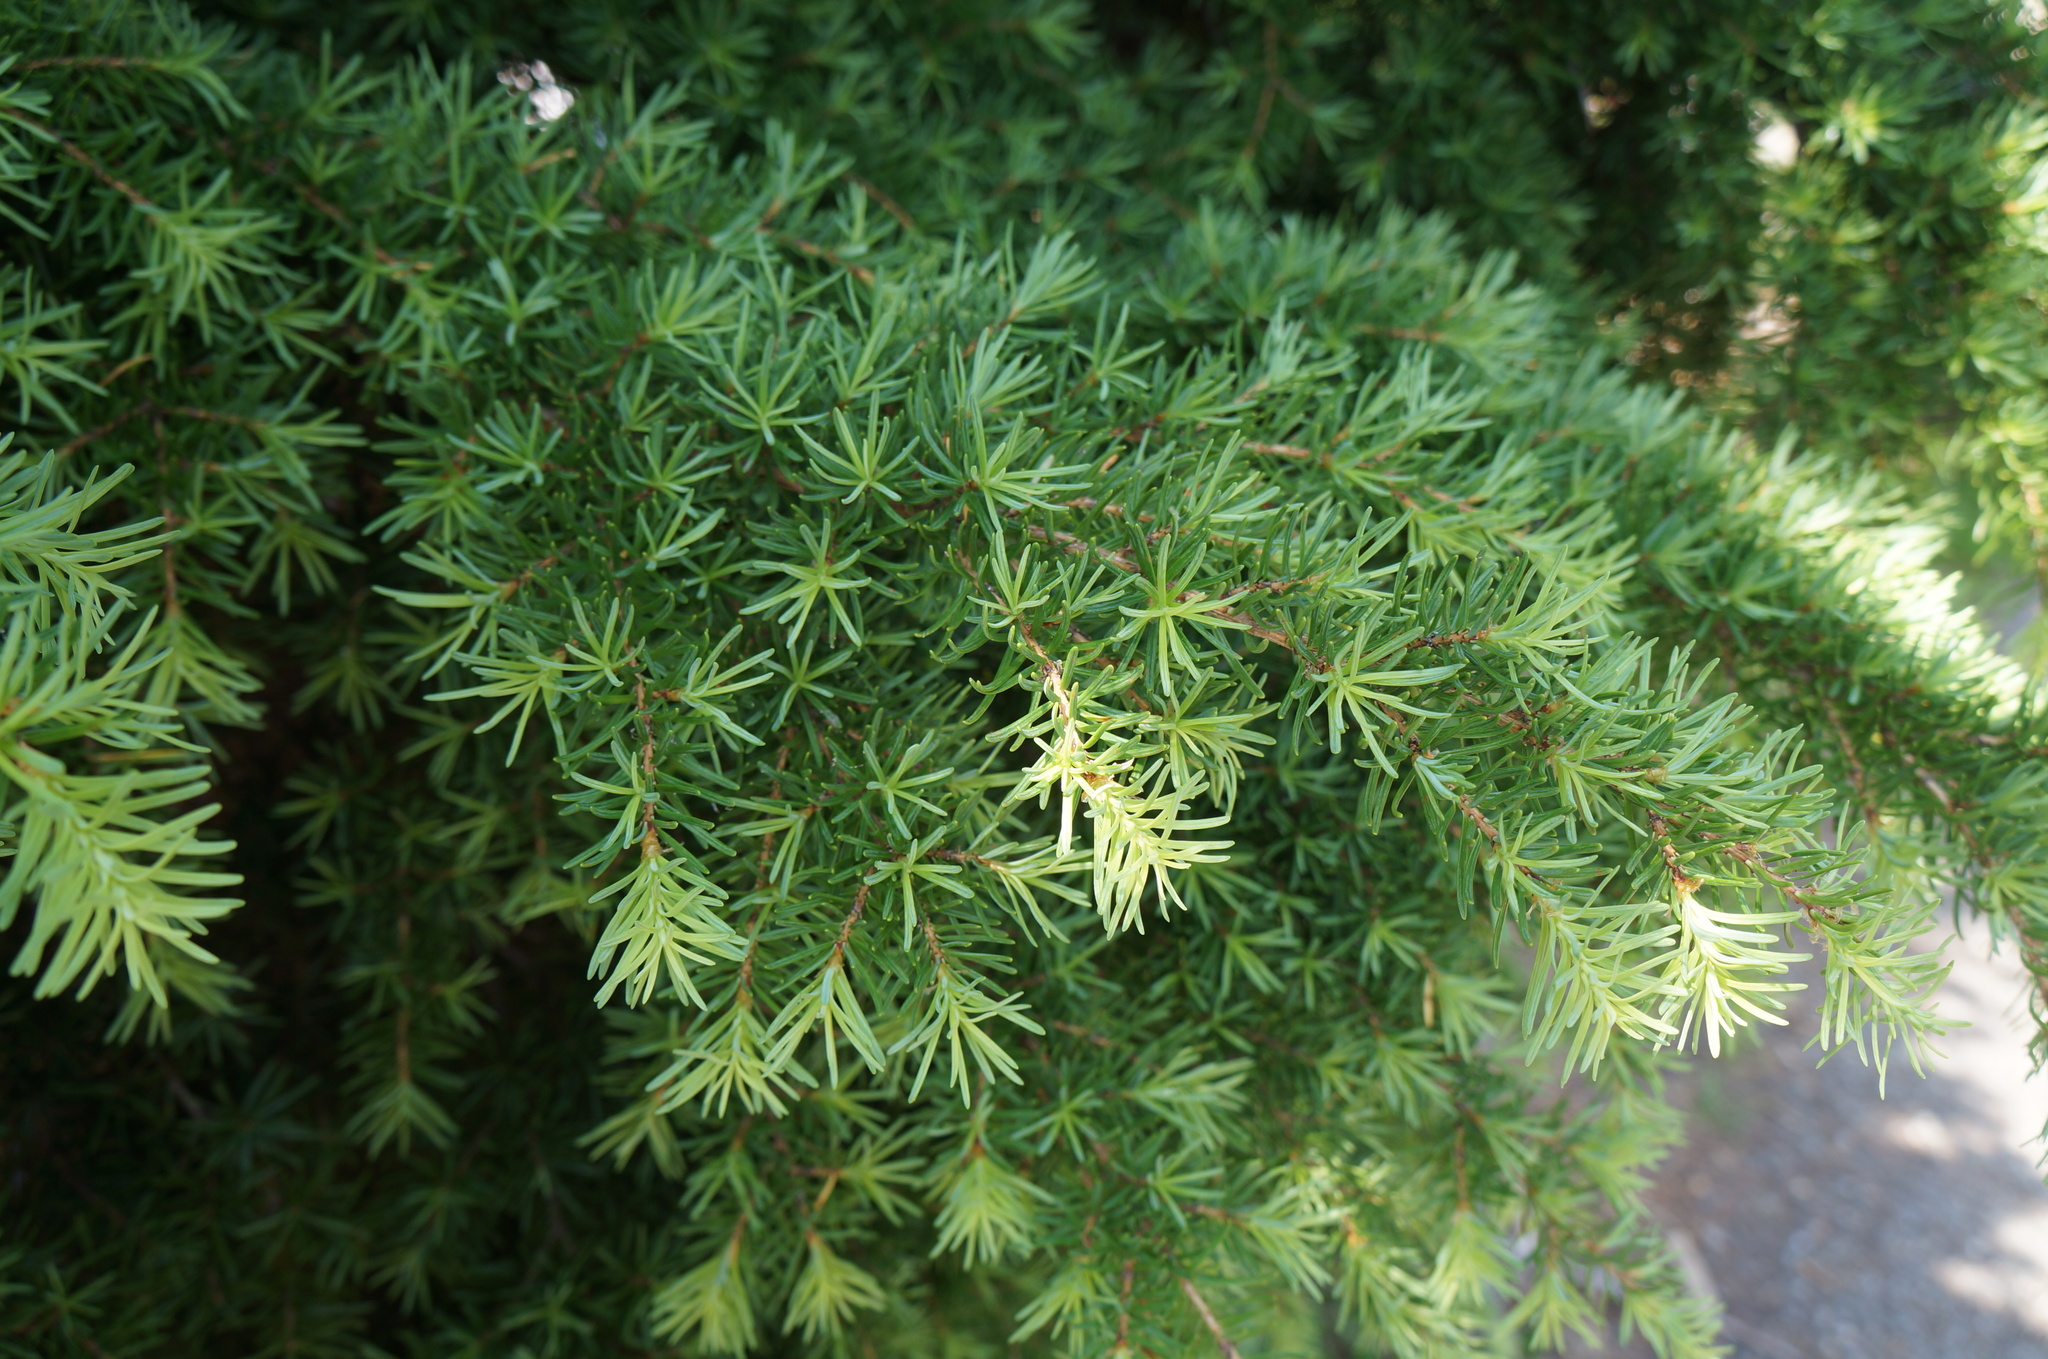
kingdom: Plantae
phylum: Tracheophyta
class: Pinopsida
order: Pinales
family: Pinaceae
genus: Tsuga
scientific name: Tsuga mertensiana
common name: Mountain hemlock
